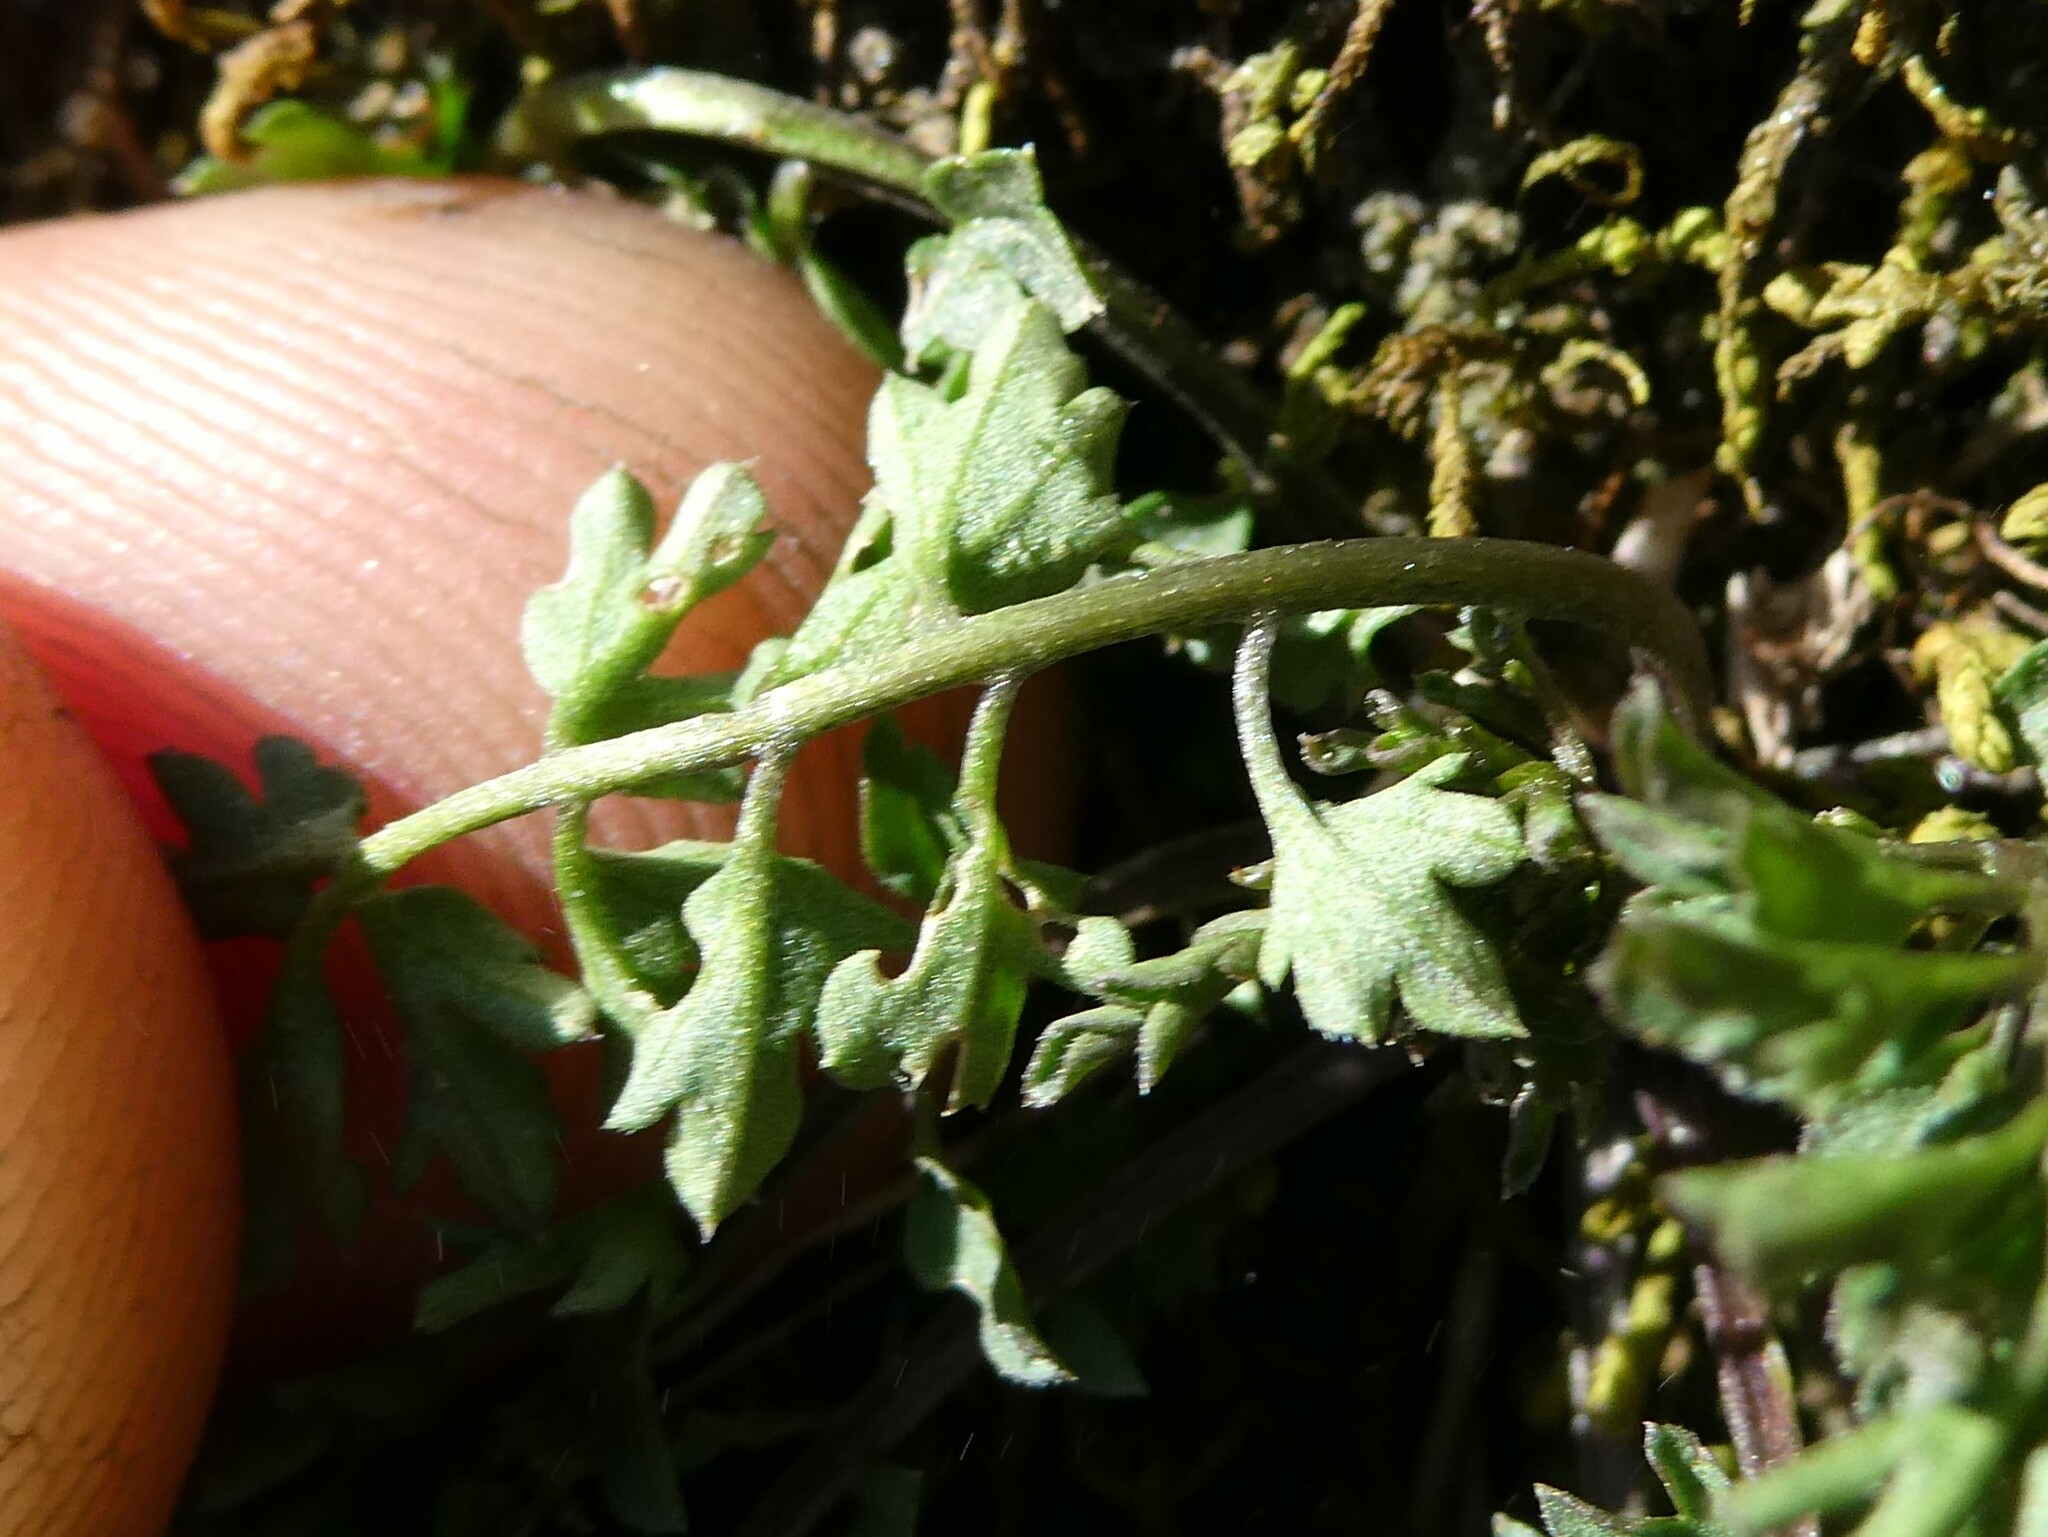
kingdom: Plantae
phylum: Tracheophyta
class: Magnoliopsida
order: Brassicales
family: Brassicaceae
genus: Cardamine
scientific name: Cardamine impatiens
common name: Narrow-leaved bitter-cress
